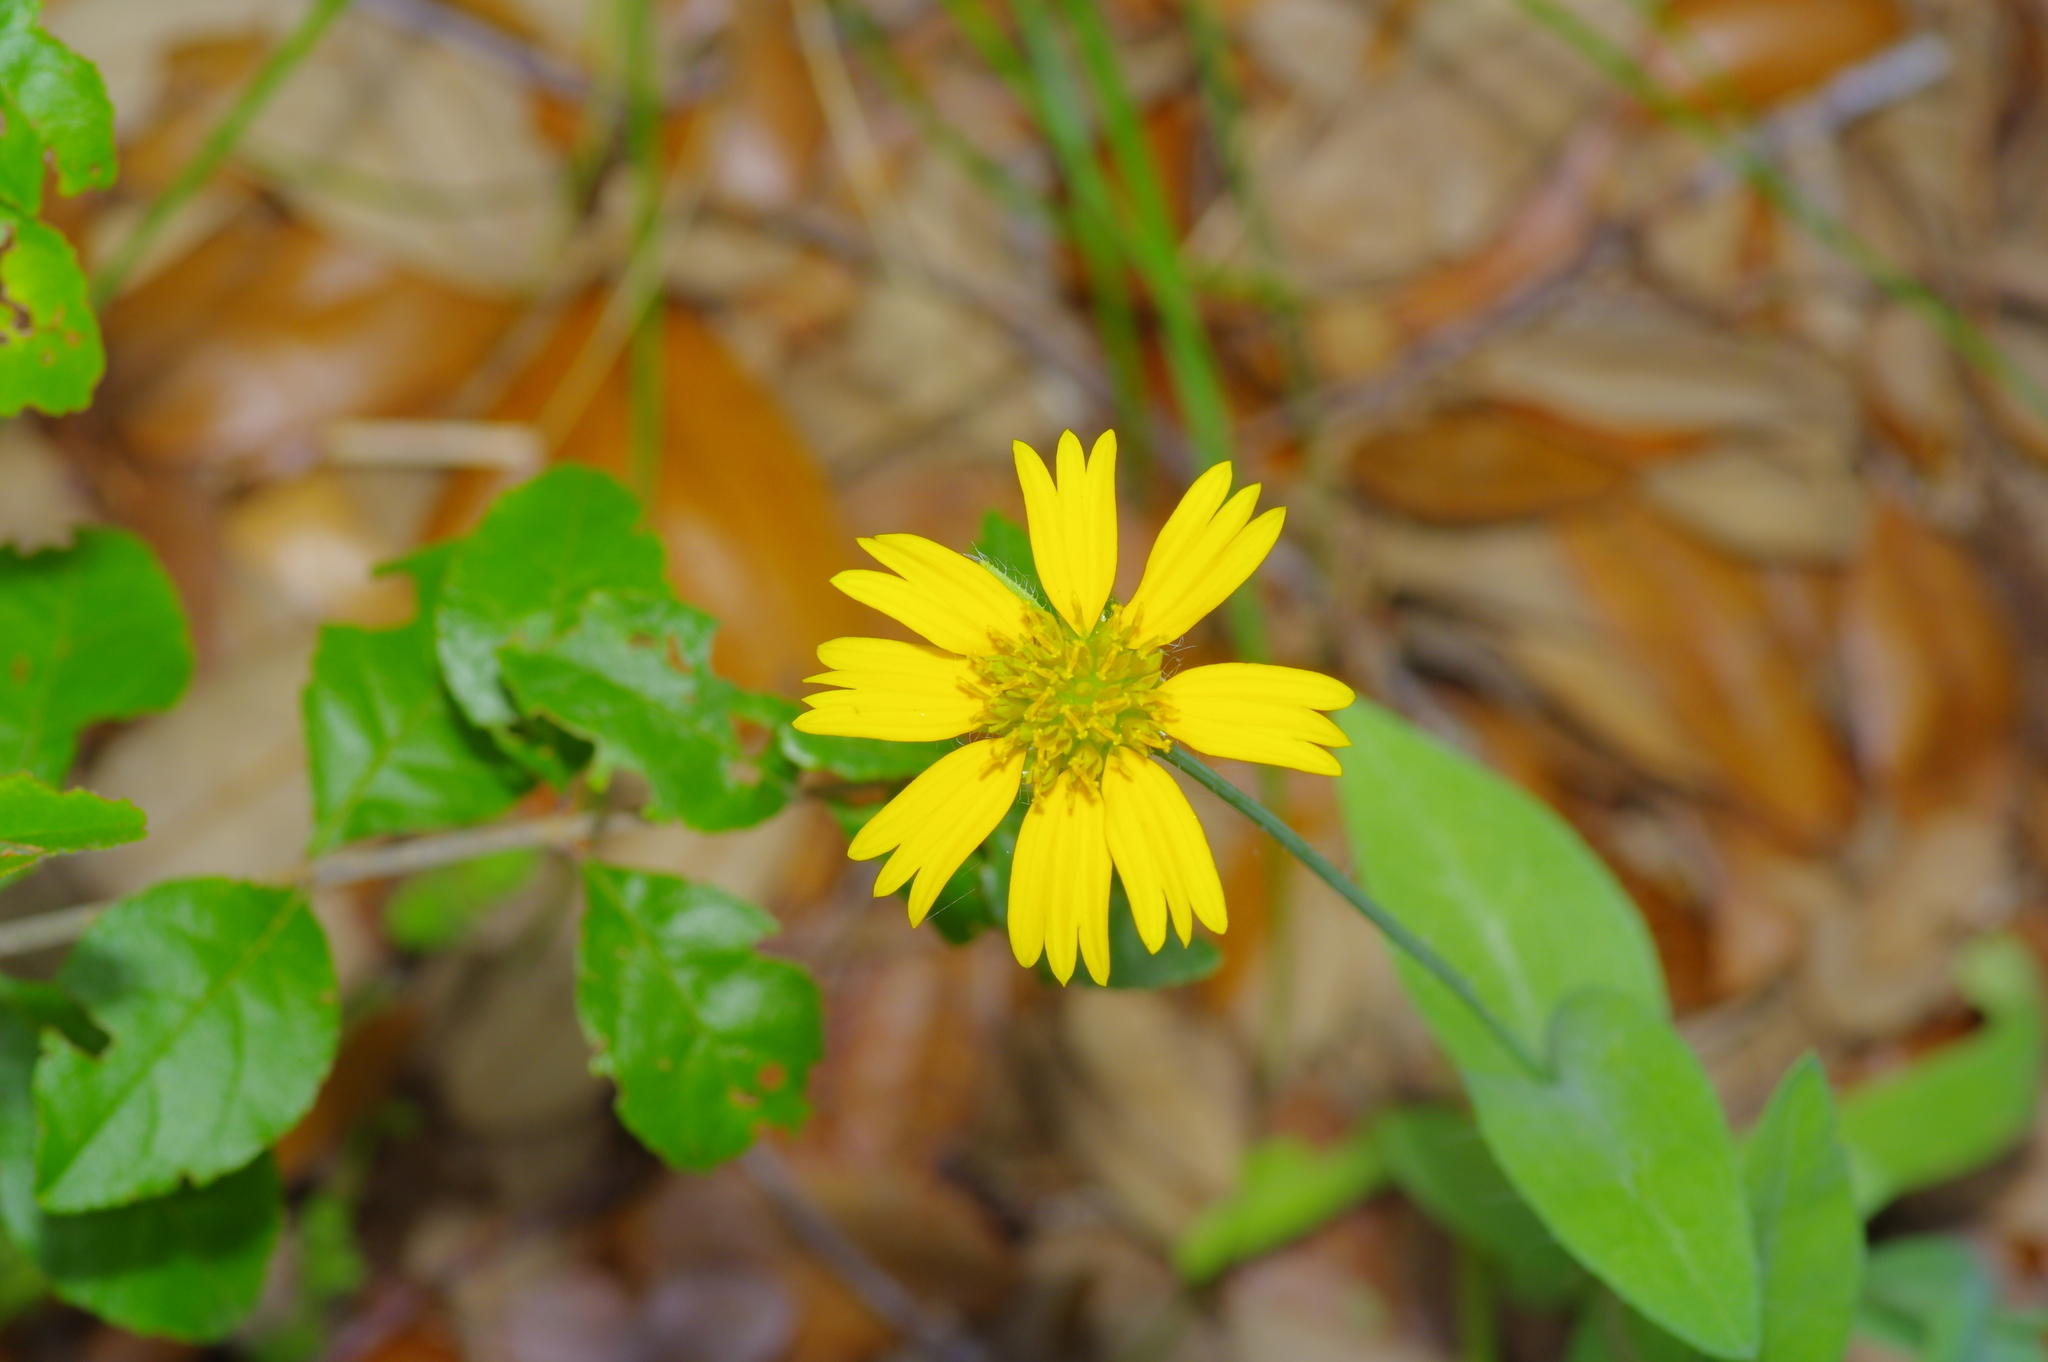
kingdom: Plantae
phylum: Tracheophyta
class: Magnoliopsida
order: Asterales
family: Asteraceae
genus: Amblyolepis
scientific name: Amblyolepis setigera
